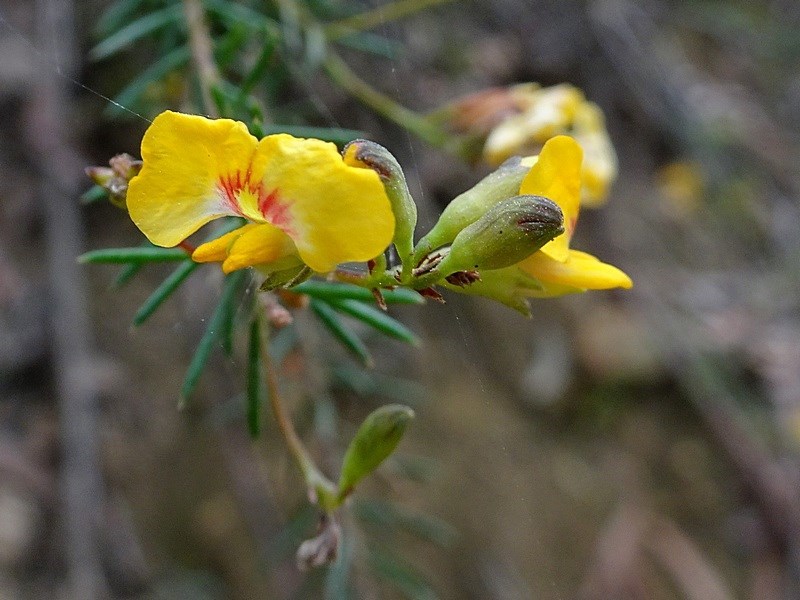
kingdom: Plantae
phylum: Tracheophyta
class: Magnoliopsida
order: Fabales
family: Fabaceae
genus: Dillwynia
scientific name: Dillwynia retorta
